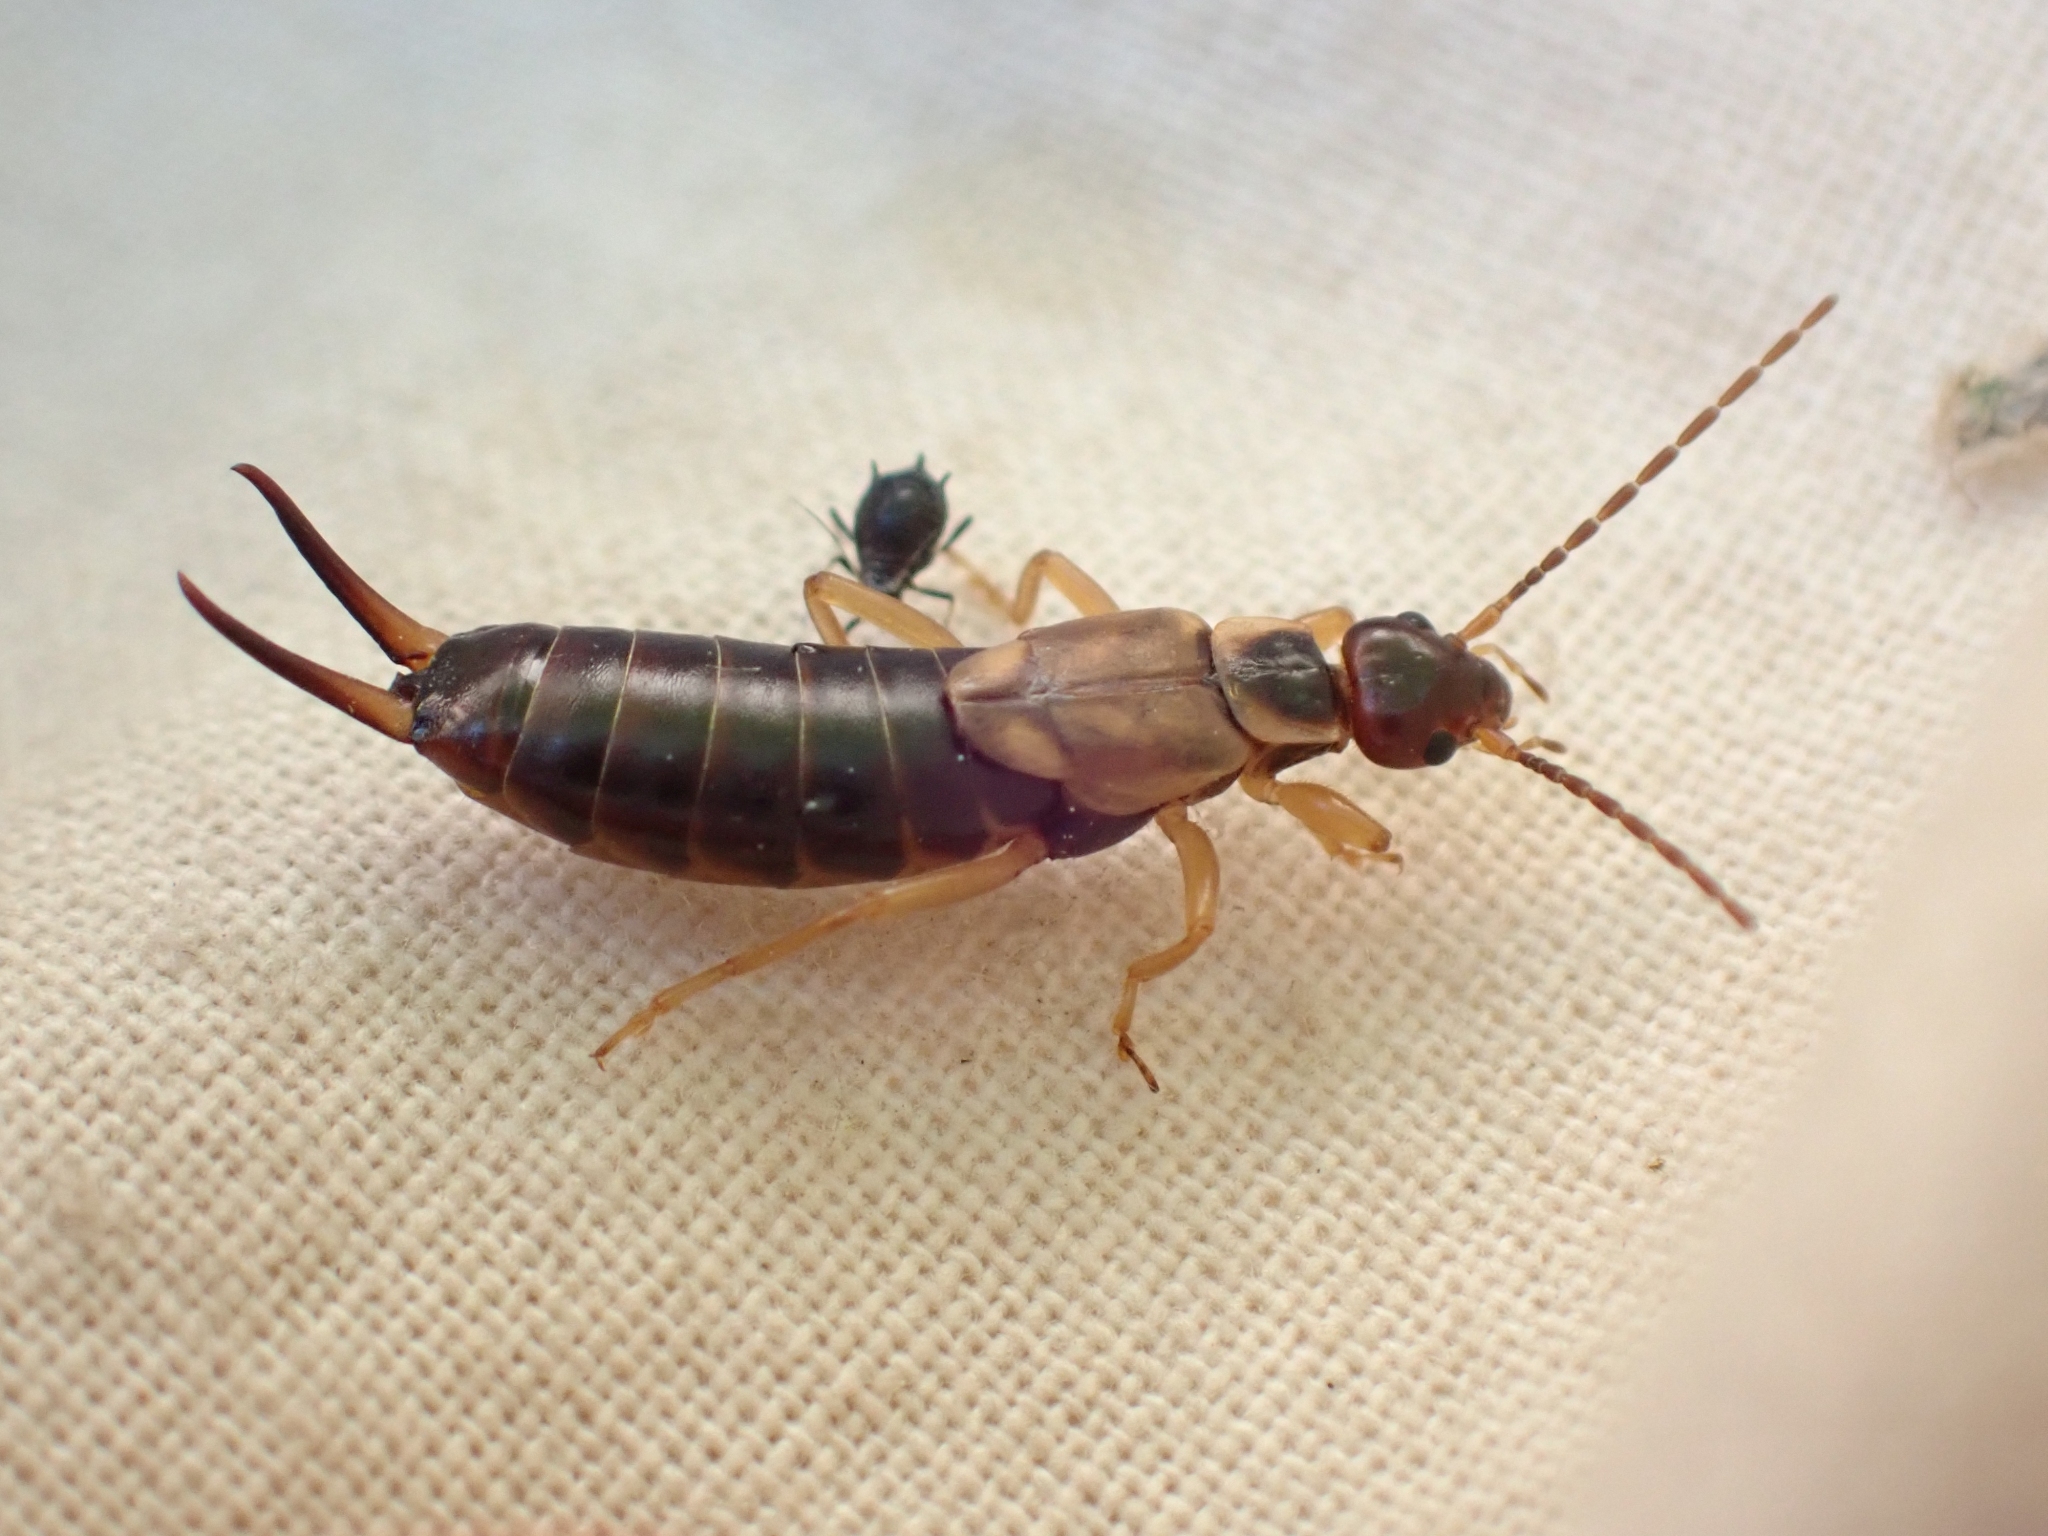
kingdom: Animalia
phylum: Arthropoda
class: Insecta
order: Dermaptera
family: Forficulidae
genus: Forficula
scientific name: Forficula
